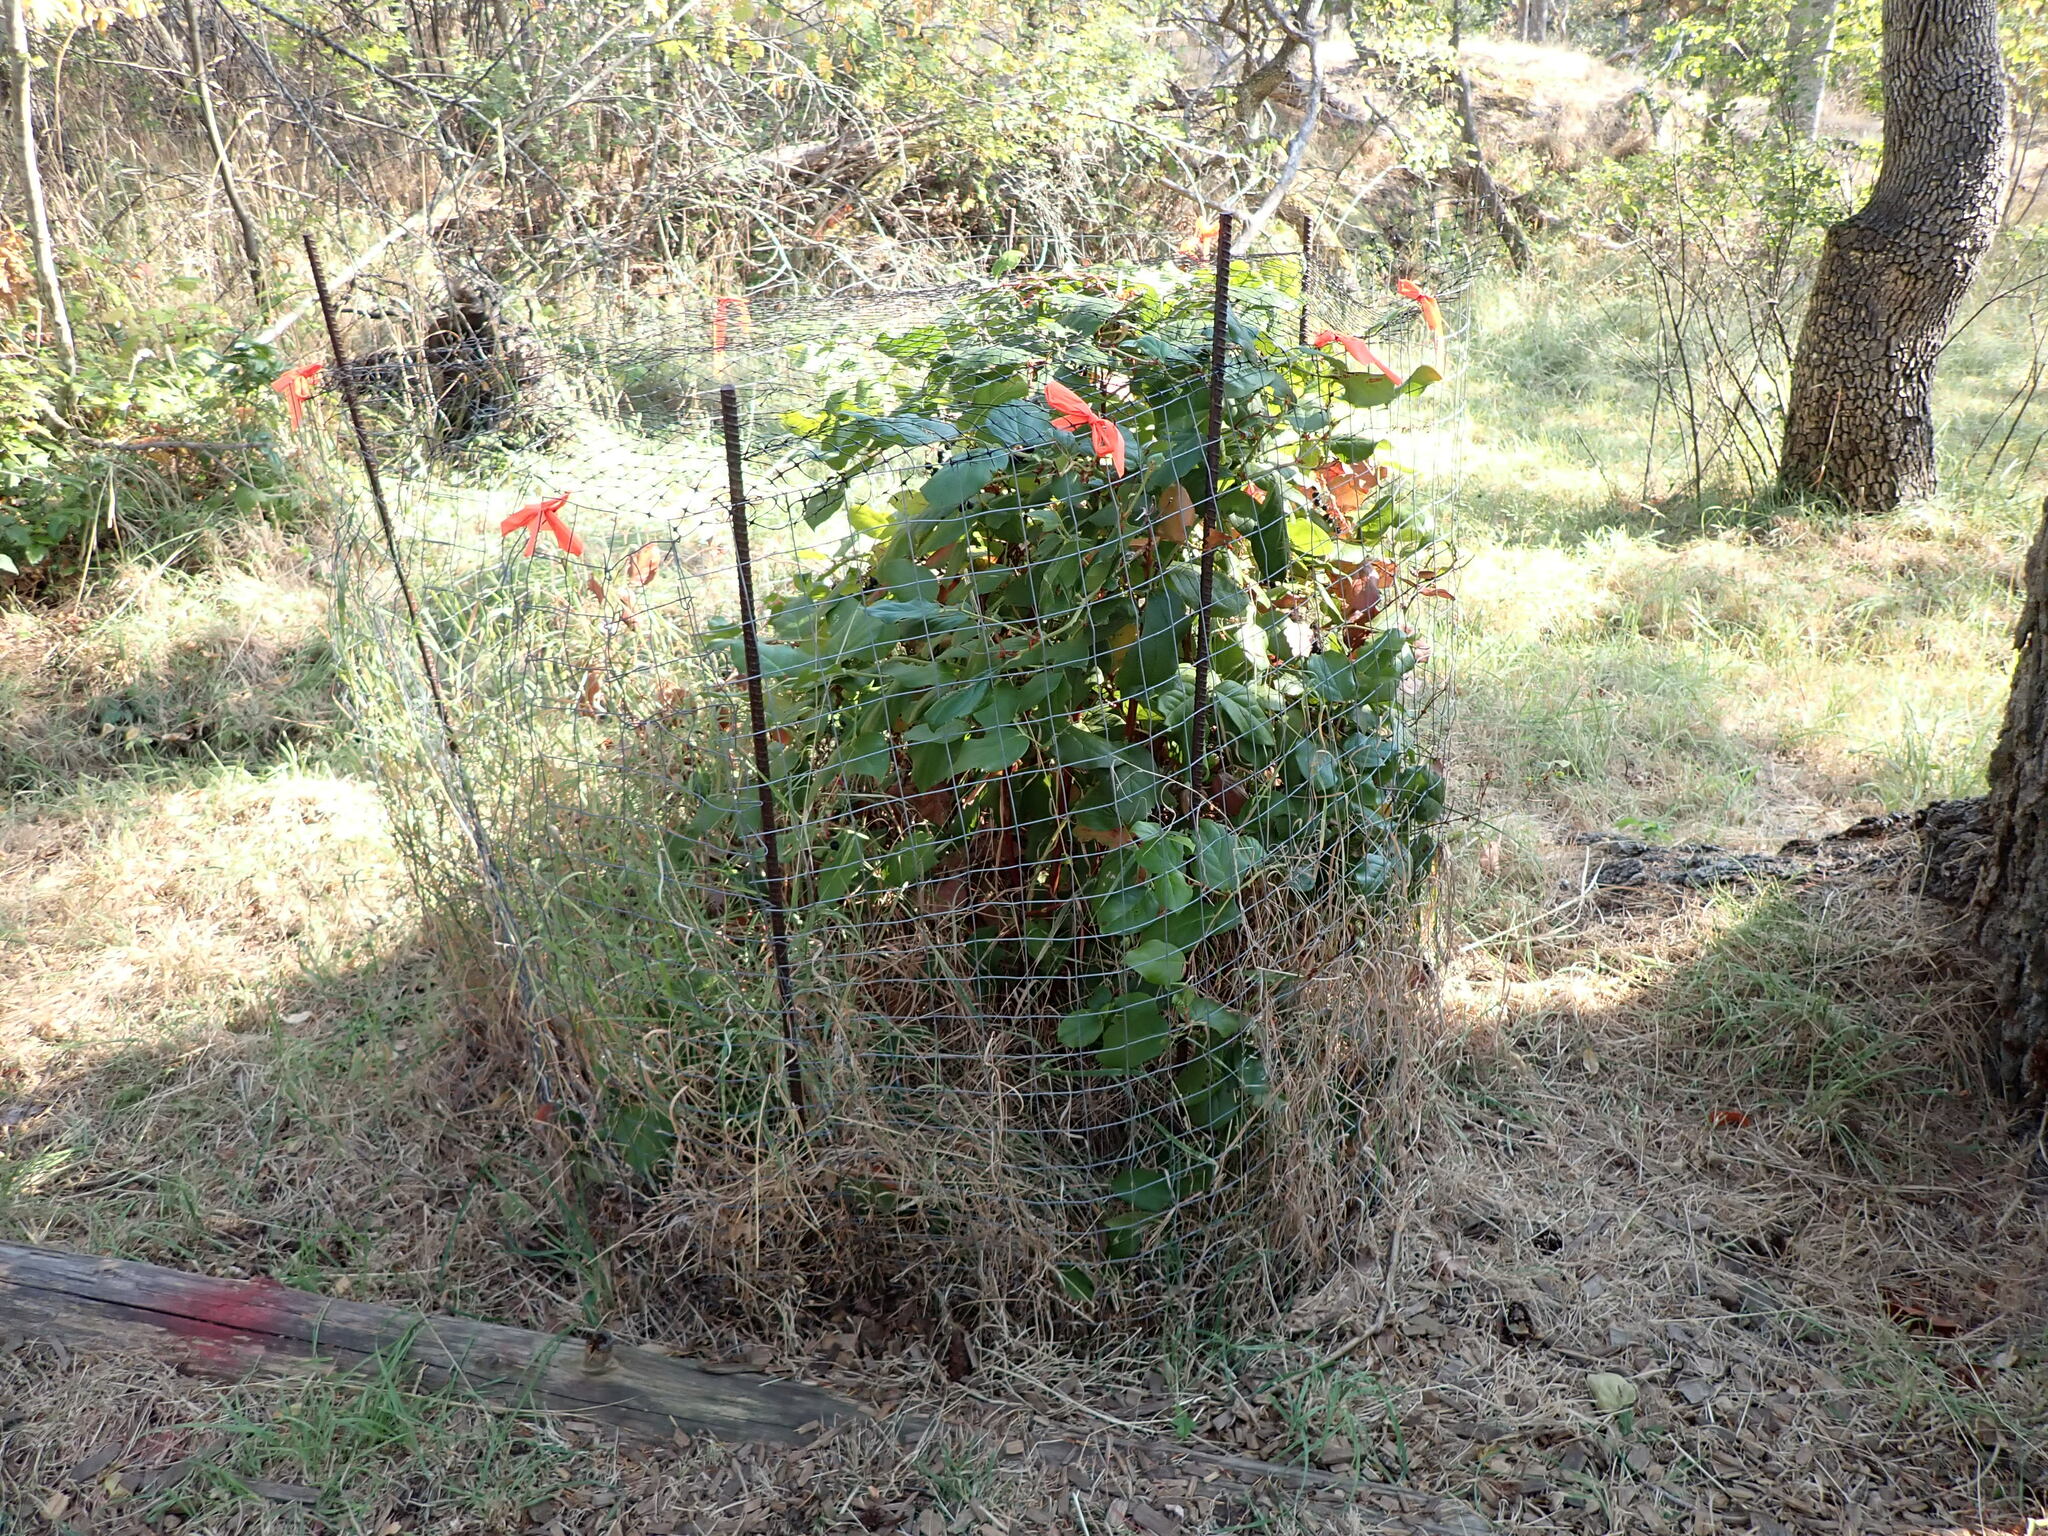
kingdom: Plantae
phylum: Tracheophyta
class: Magnoliopsida
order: Ericales
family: Ericaceae
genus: Gaultheria
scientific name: Gaultheria shallon
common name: Shallon
